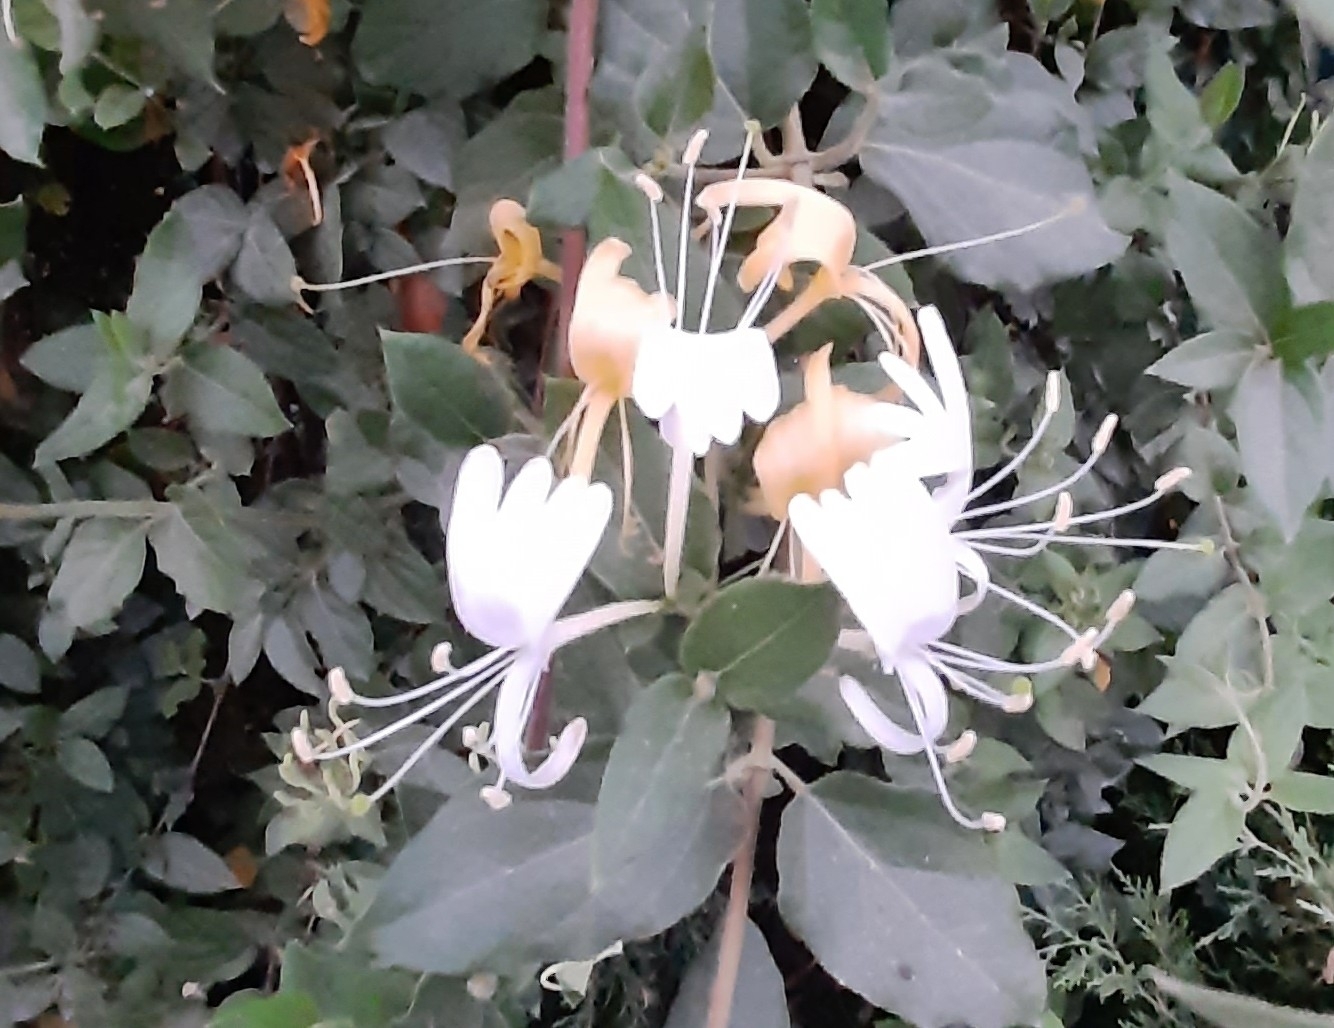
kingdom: Plantae
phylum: Tracheophyta
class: Magnoliopsida
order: Dipsacales
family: Caprifoliaceae
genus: Lonicera
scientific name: Lonicera japonica
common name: Japanese honeysuckle
